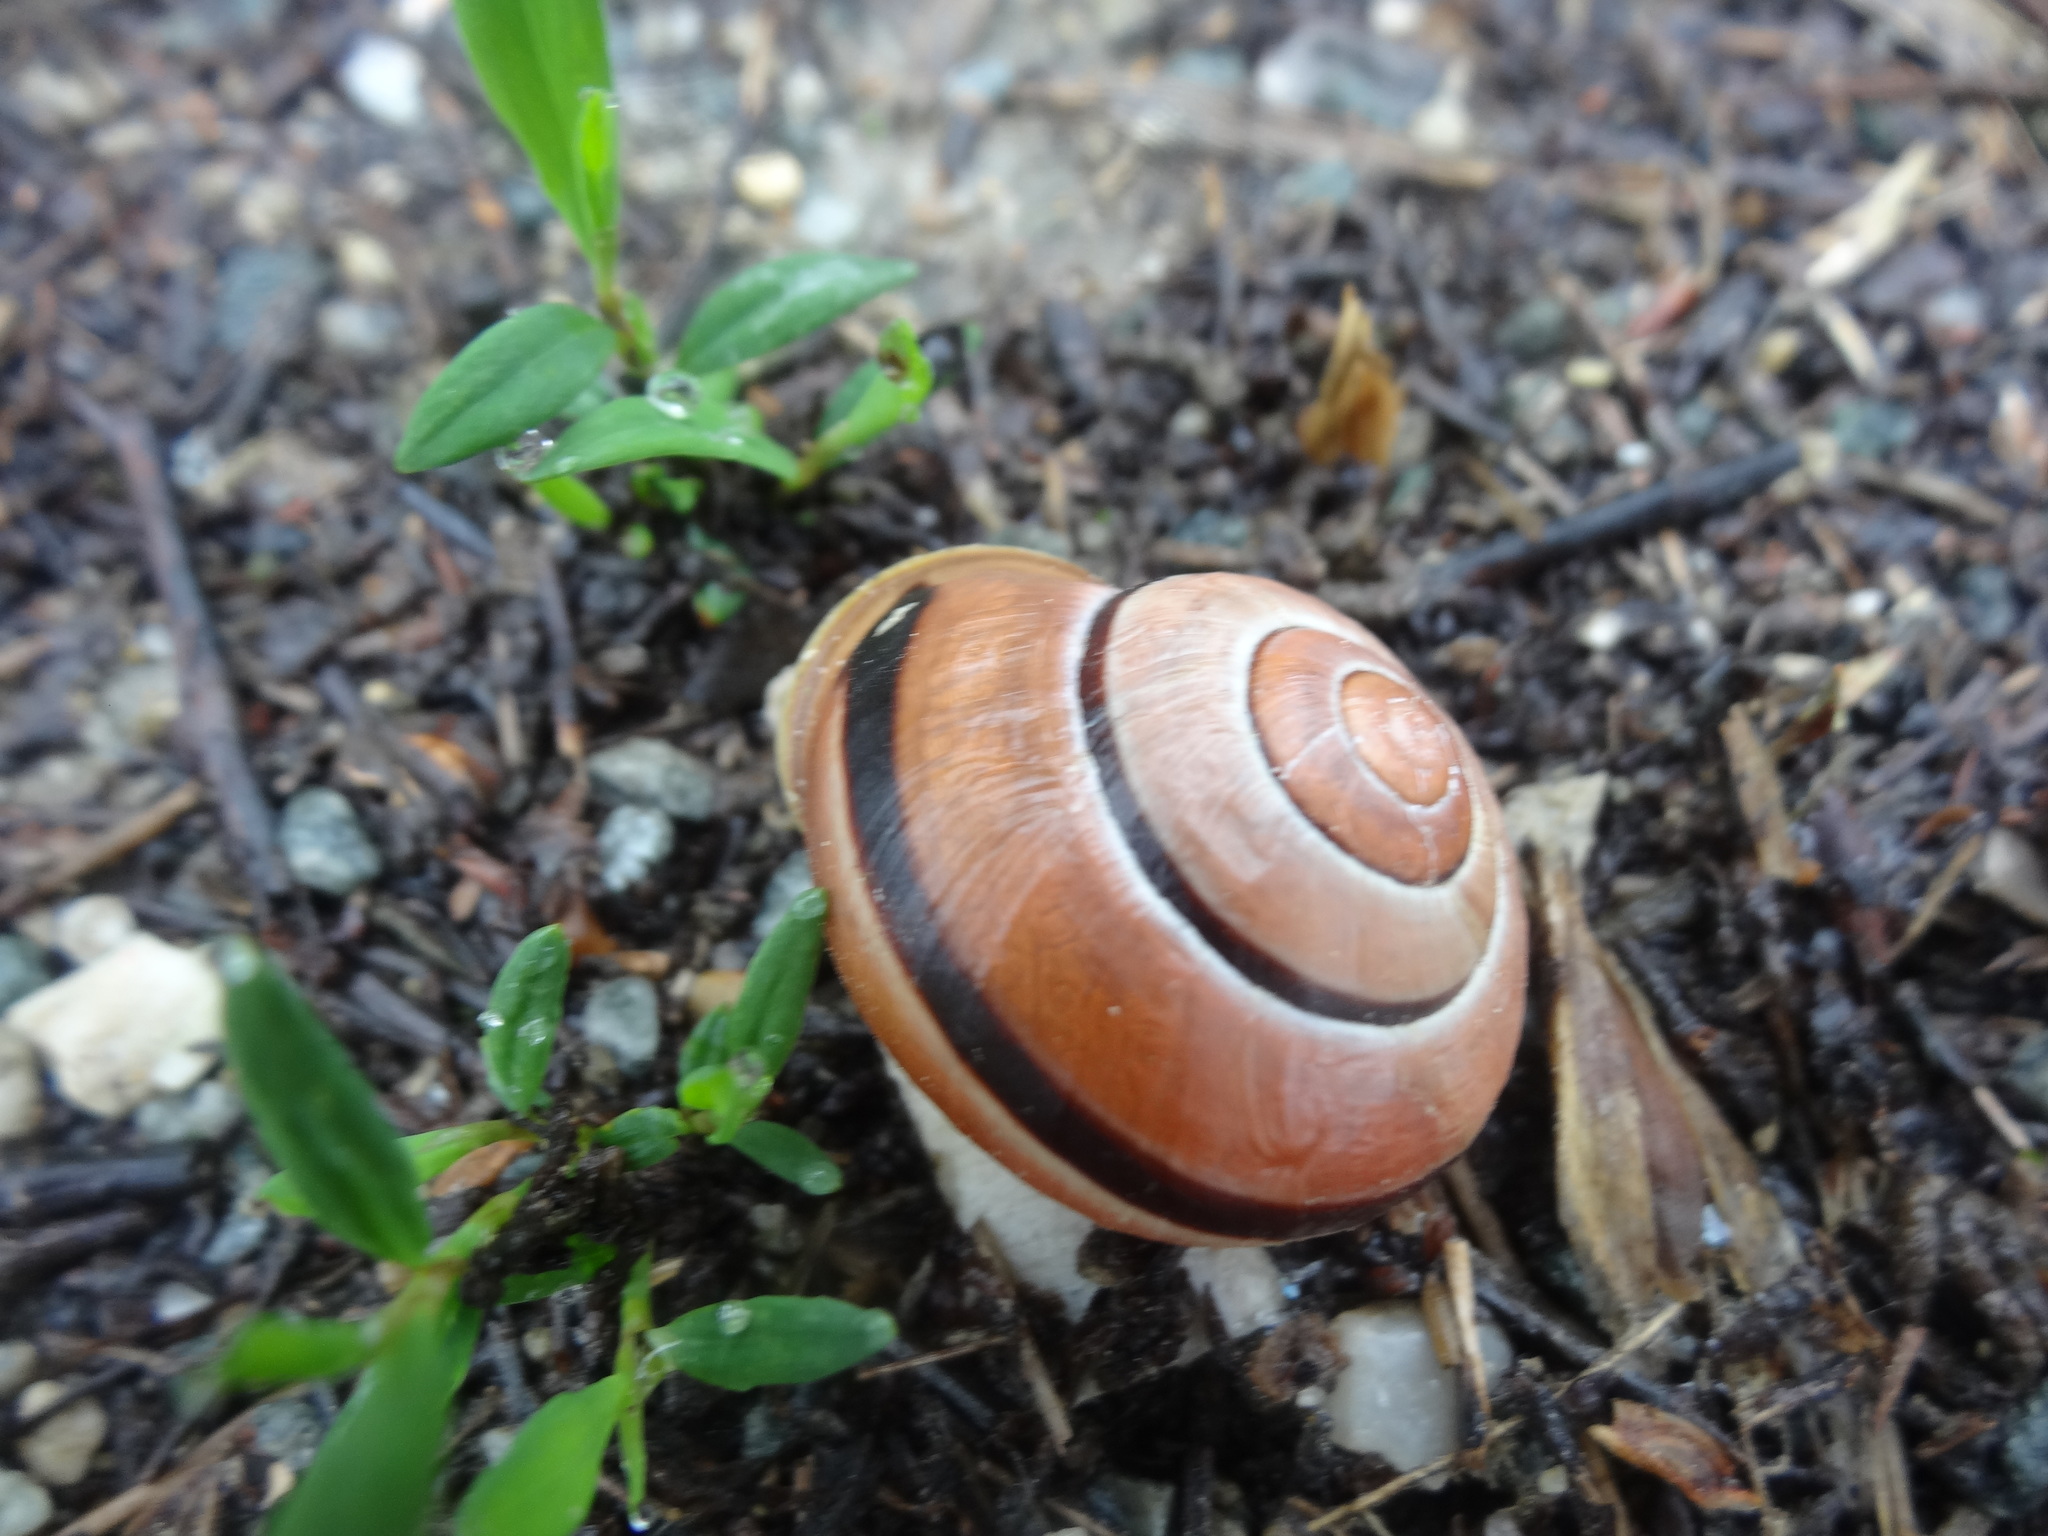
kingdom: Animalia
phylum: Mollusca
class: Gastropoda
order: Stylommatophora
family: Helicidae
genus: Cepaea
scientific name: Cepaea nemoralis
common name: Grovesnail
